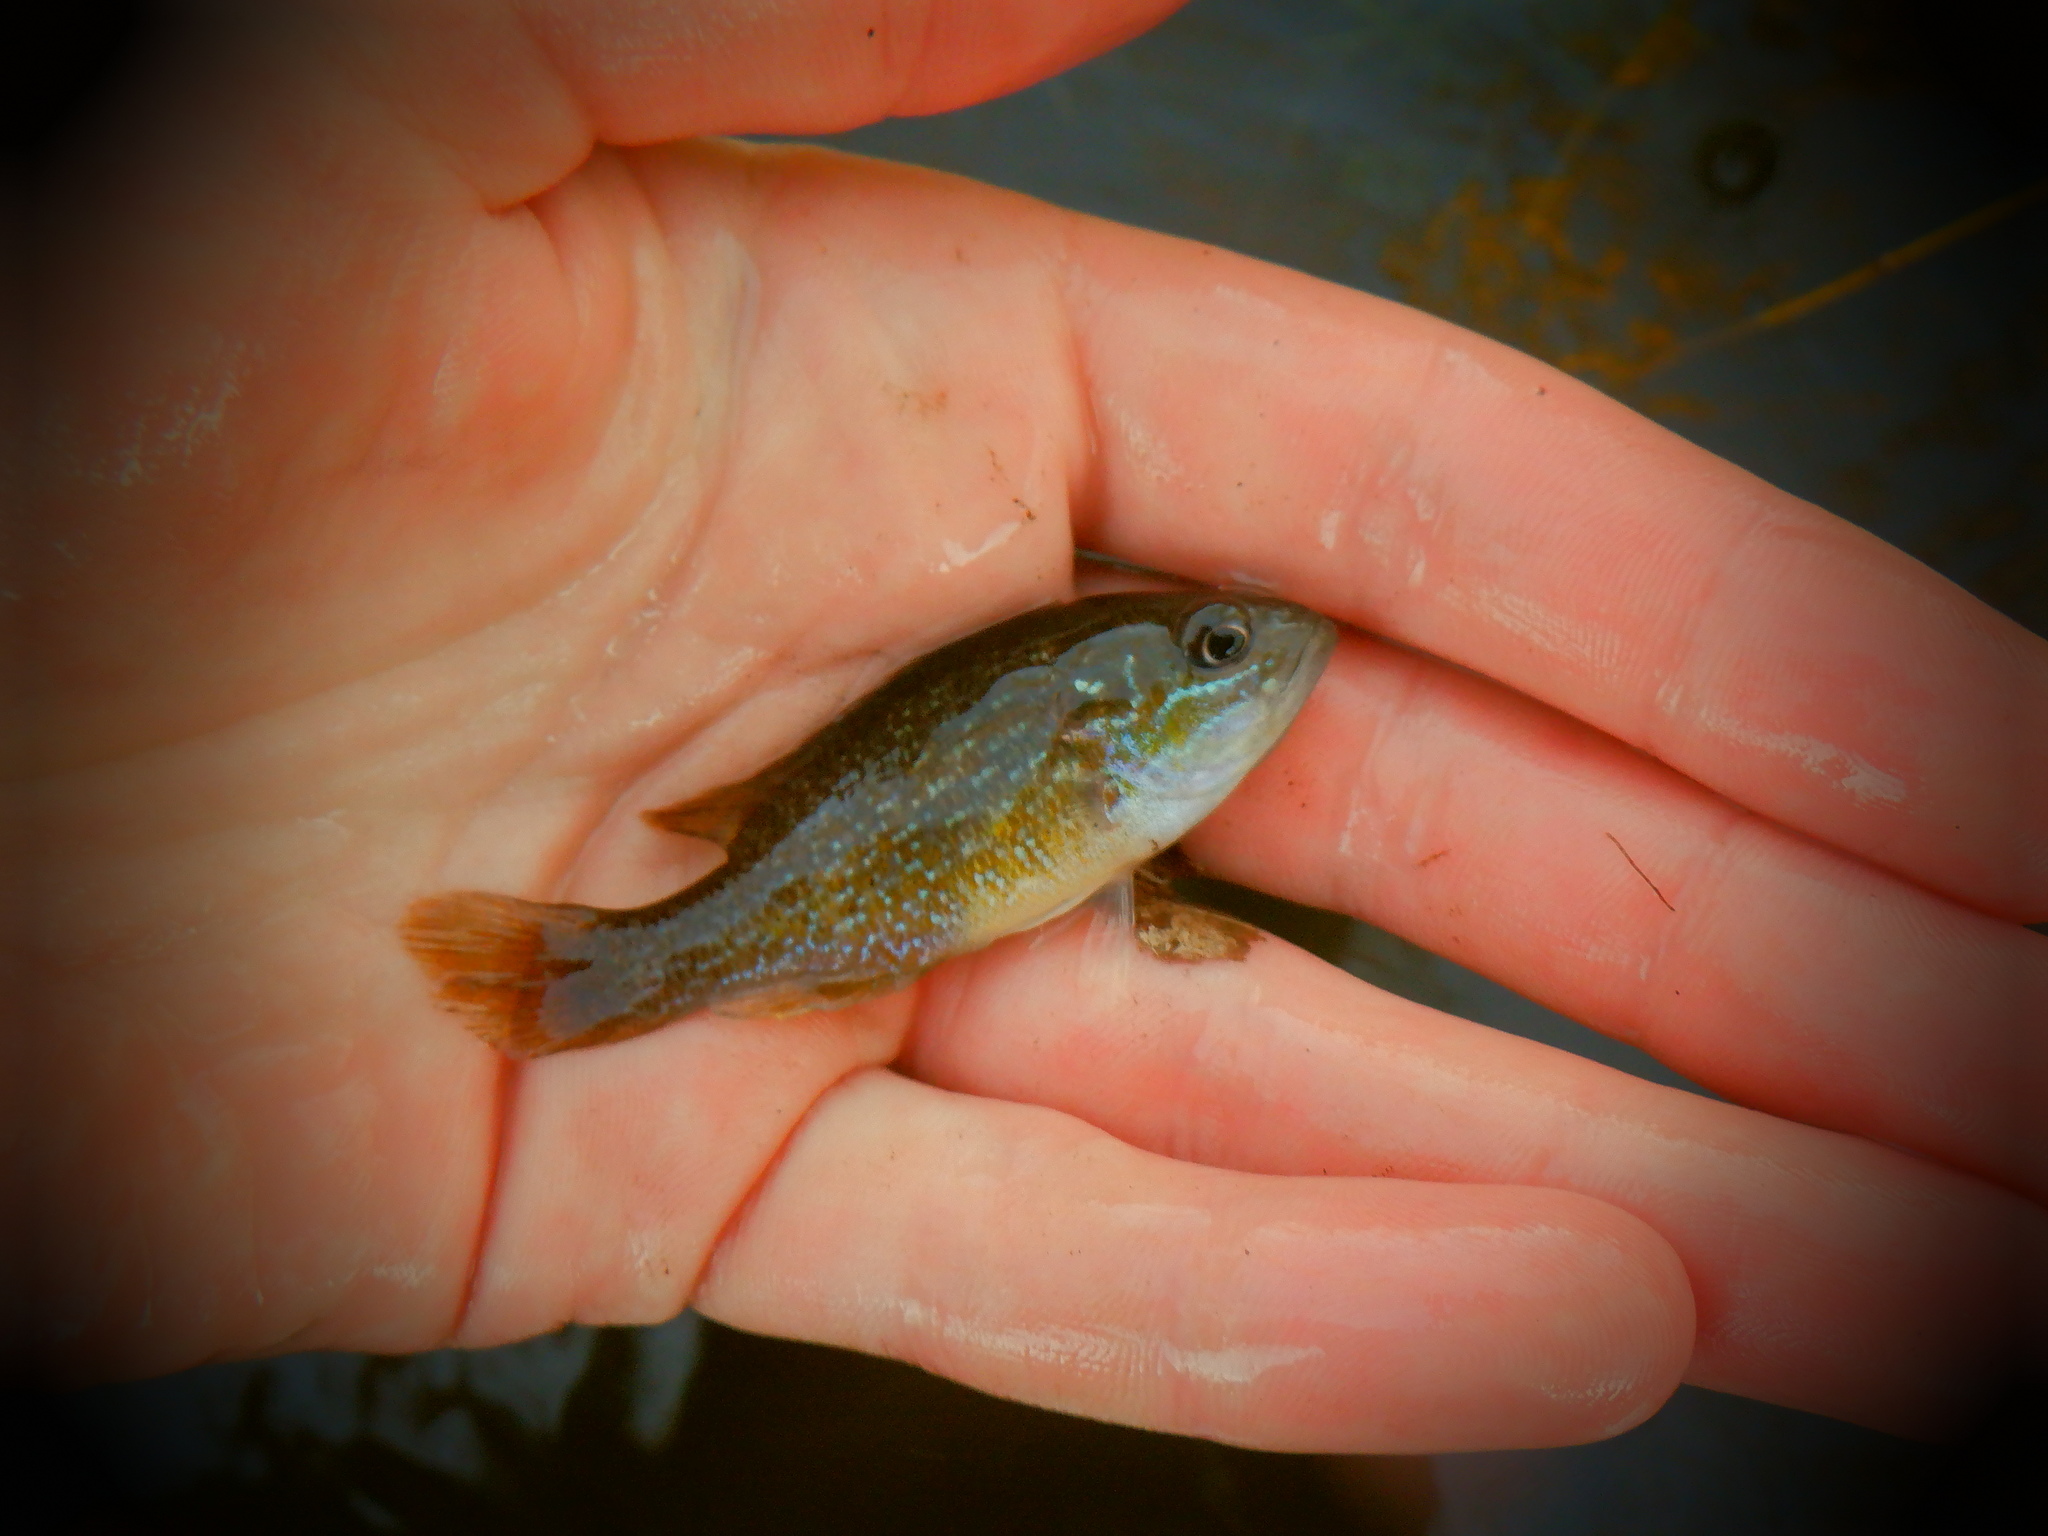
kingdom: Animalia
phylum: Chordata
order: Perciformes
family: Centrarchidae
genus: Lepomis
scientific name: Lepomis cyanellus
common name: Green sunfish
